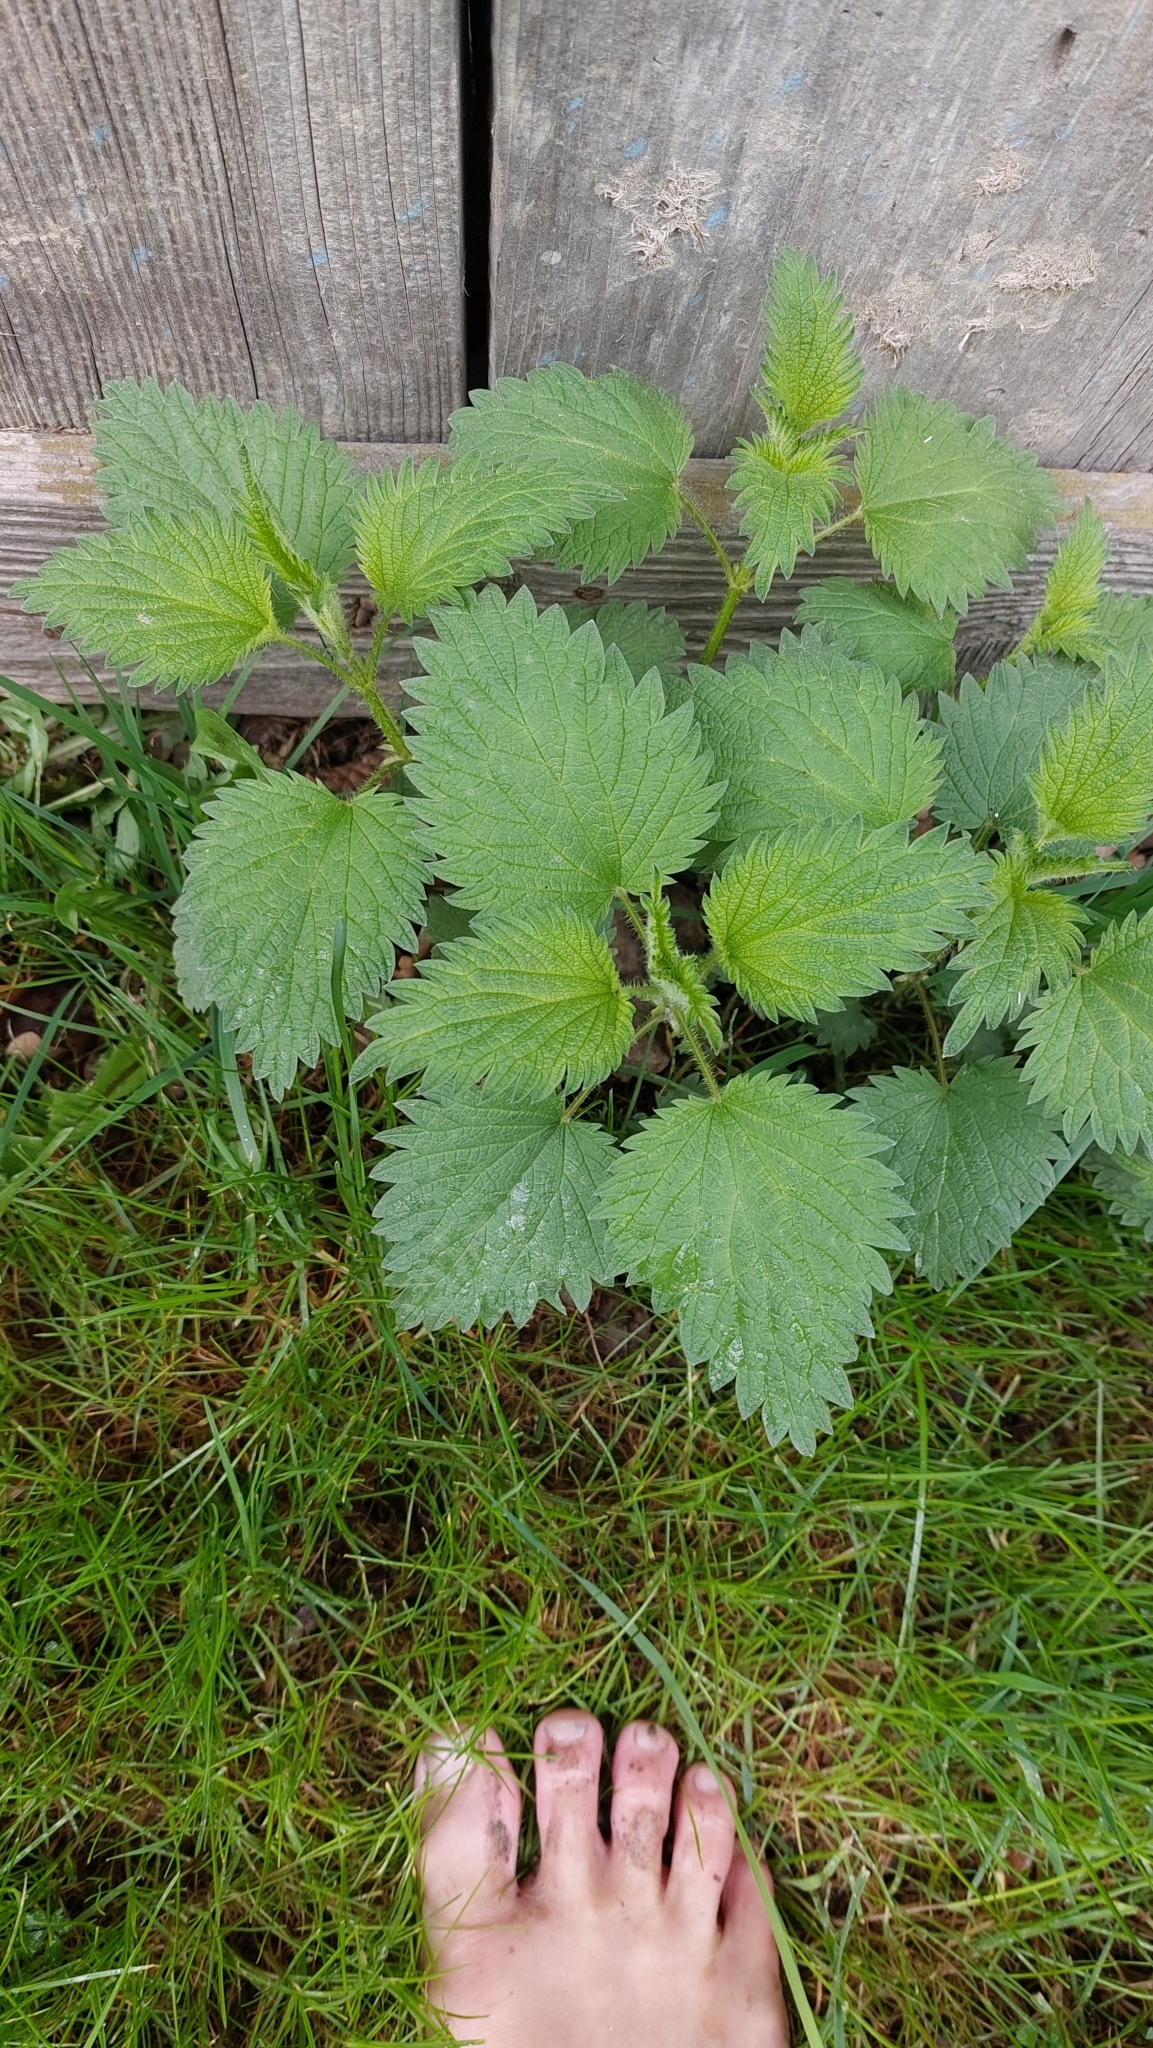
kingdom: Plantae
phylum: Tracheophyta
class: Magnoliopsida
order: Rosales
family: Urticaceae
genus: Urtica
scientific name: Urtica dioica
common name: Common nettle
